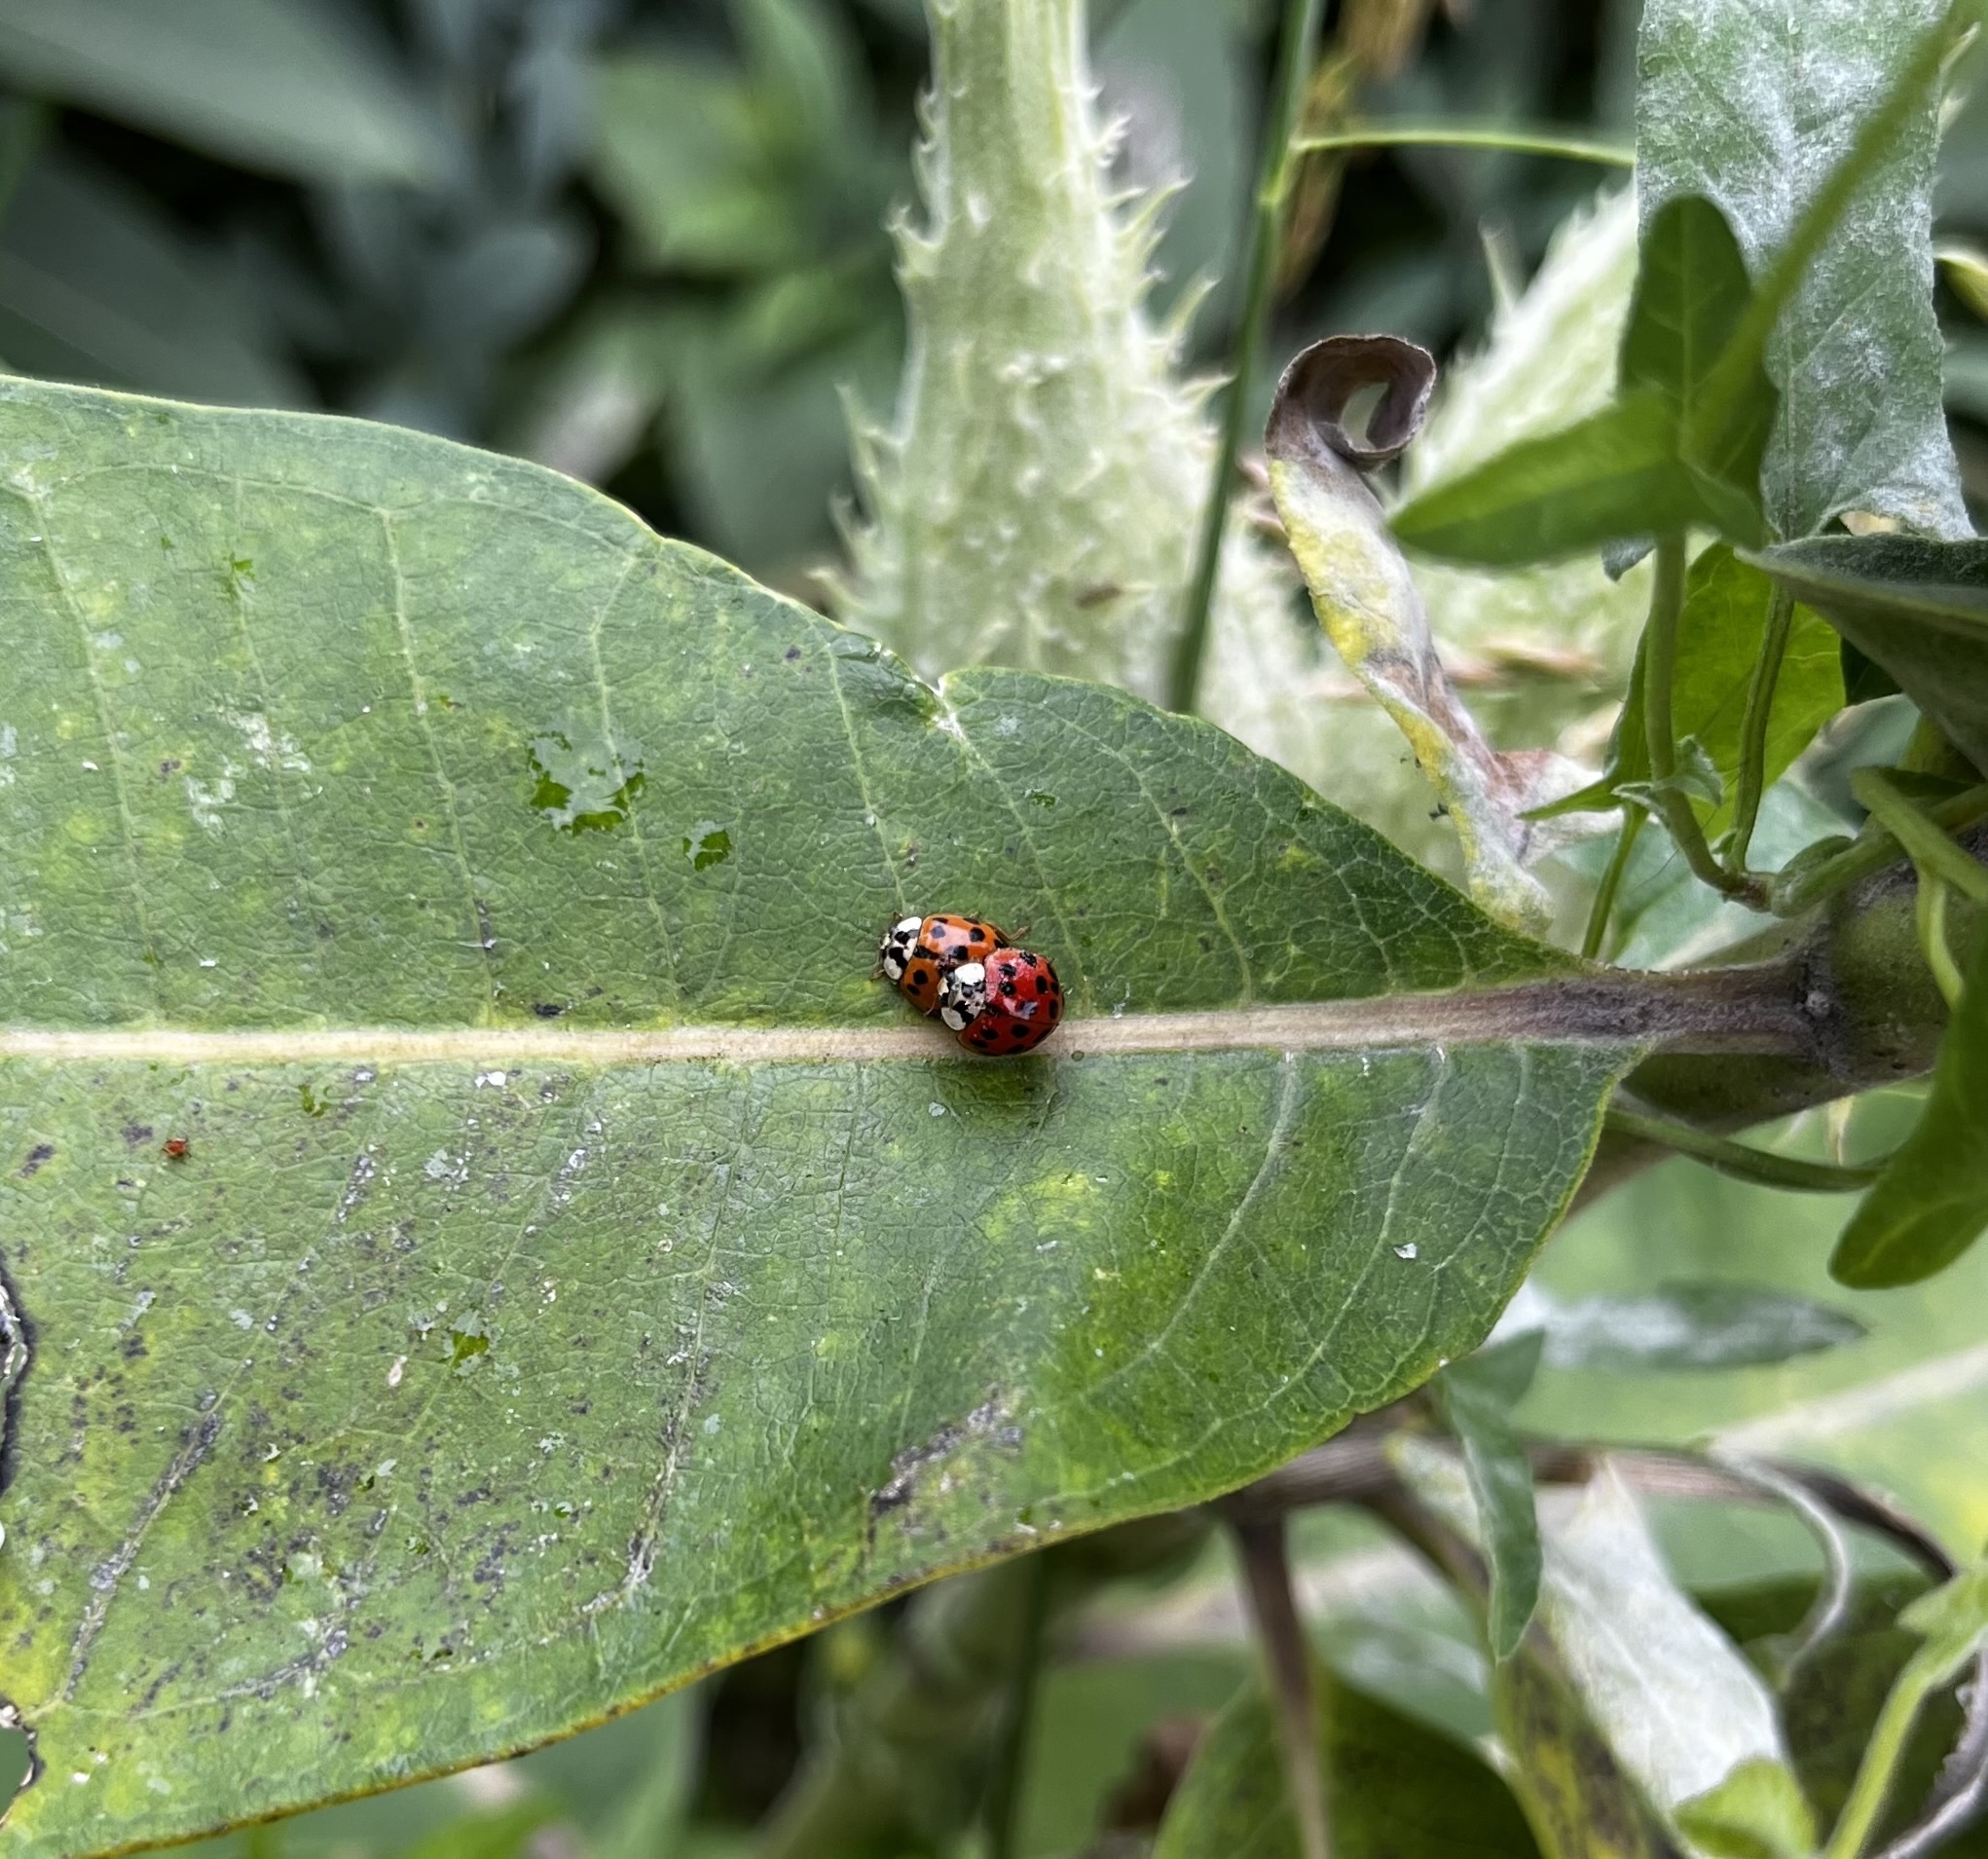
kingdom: Animalia
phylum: Arthropoda
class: Insecta
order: Coleoptera
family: Coccinellidae
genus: Harmonia
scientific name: Harmonia axyridis
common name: Harlequin ladybird
